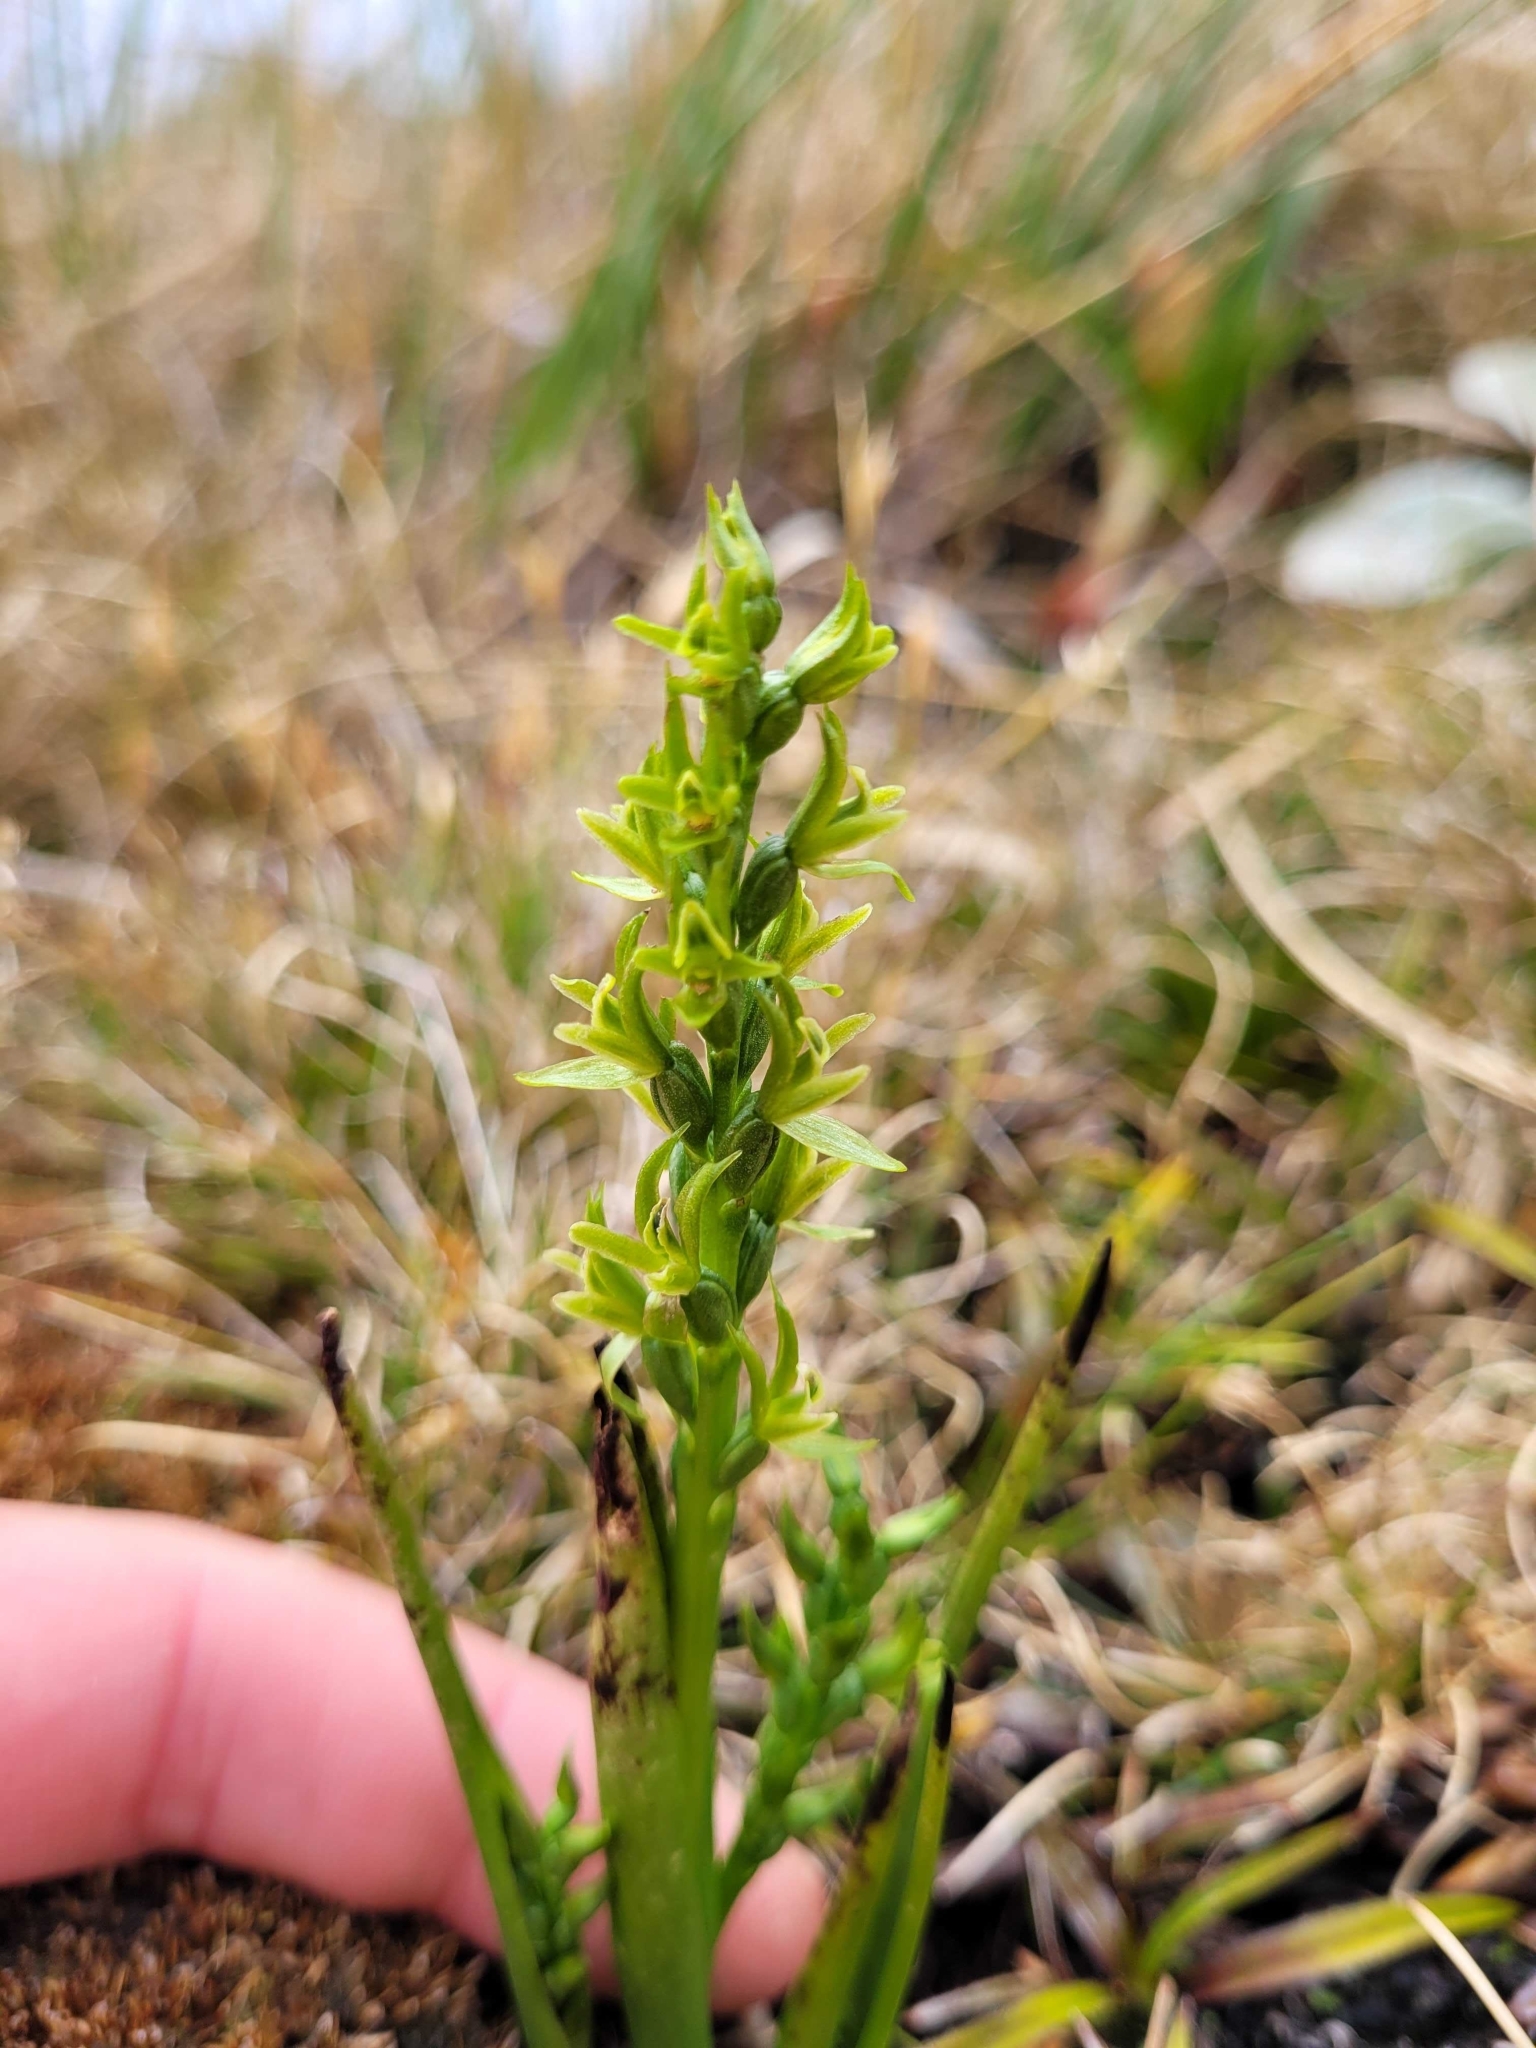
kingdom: Plantae
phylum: Tracheophyta
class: Liliopsida
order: Asparagales
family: Orchidaceae
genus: Prasophyllum
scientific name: Prasophyllum colensoi
